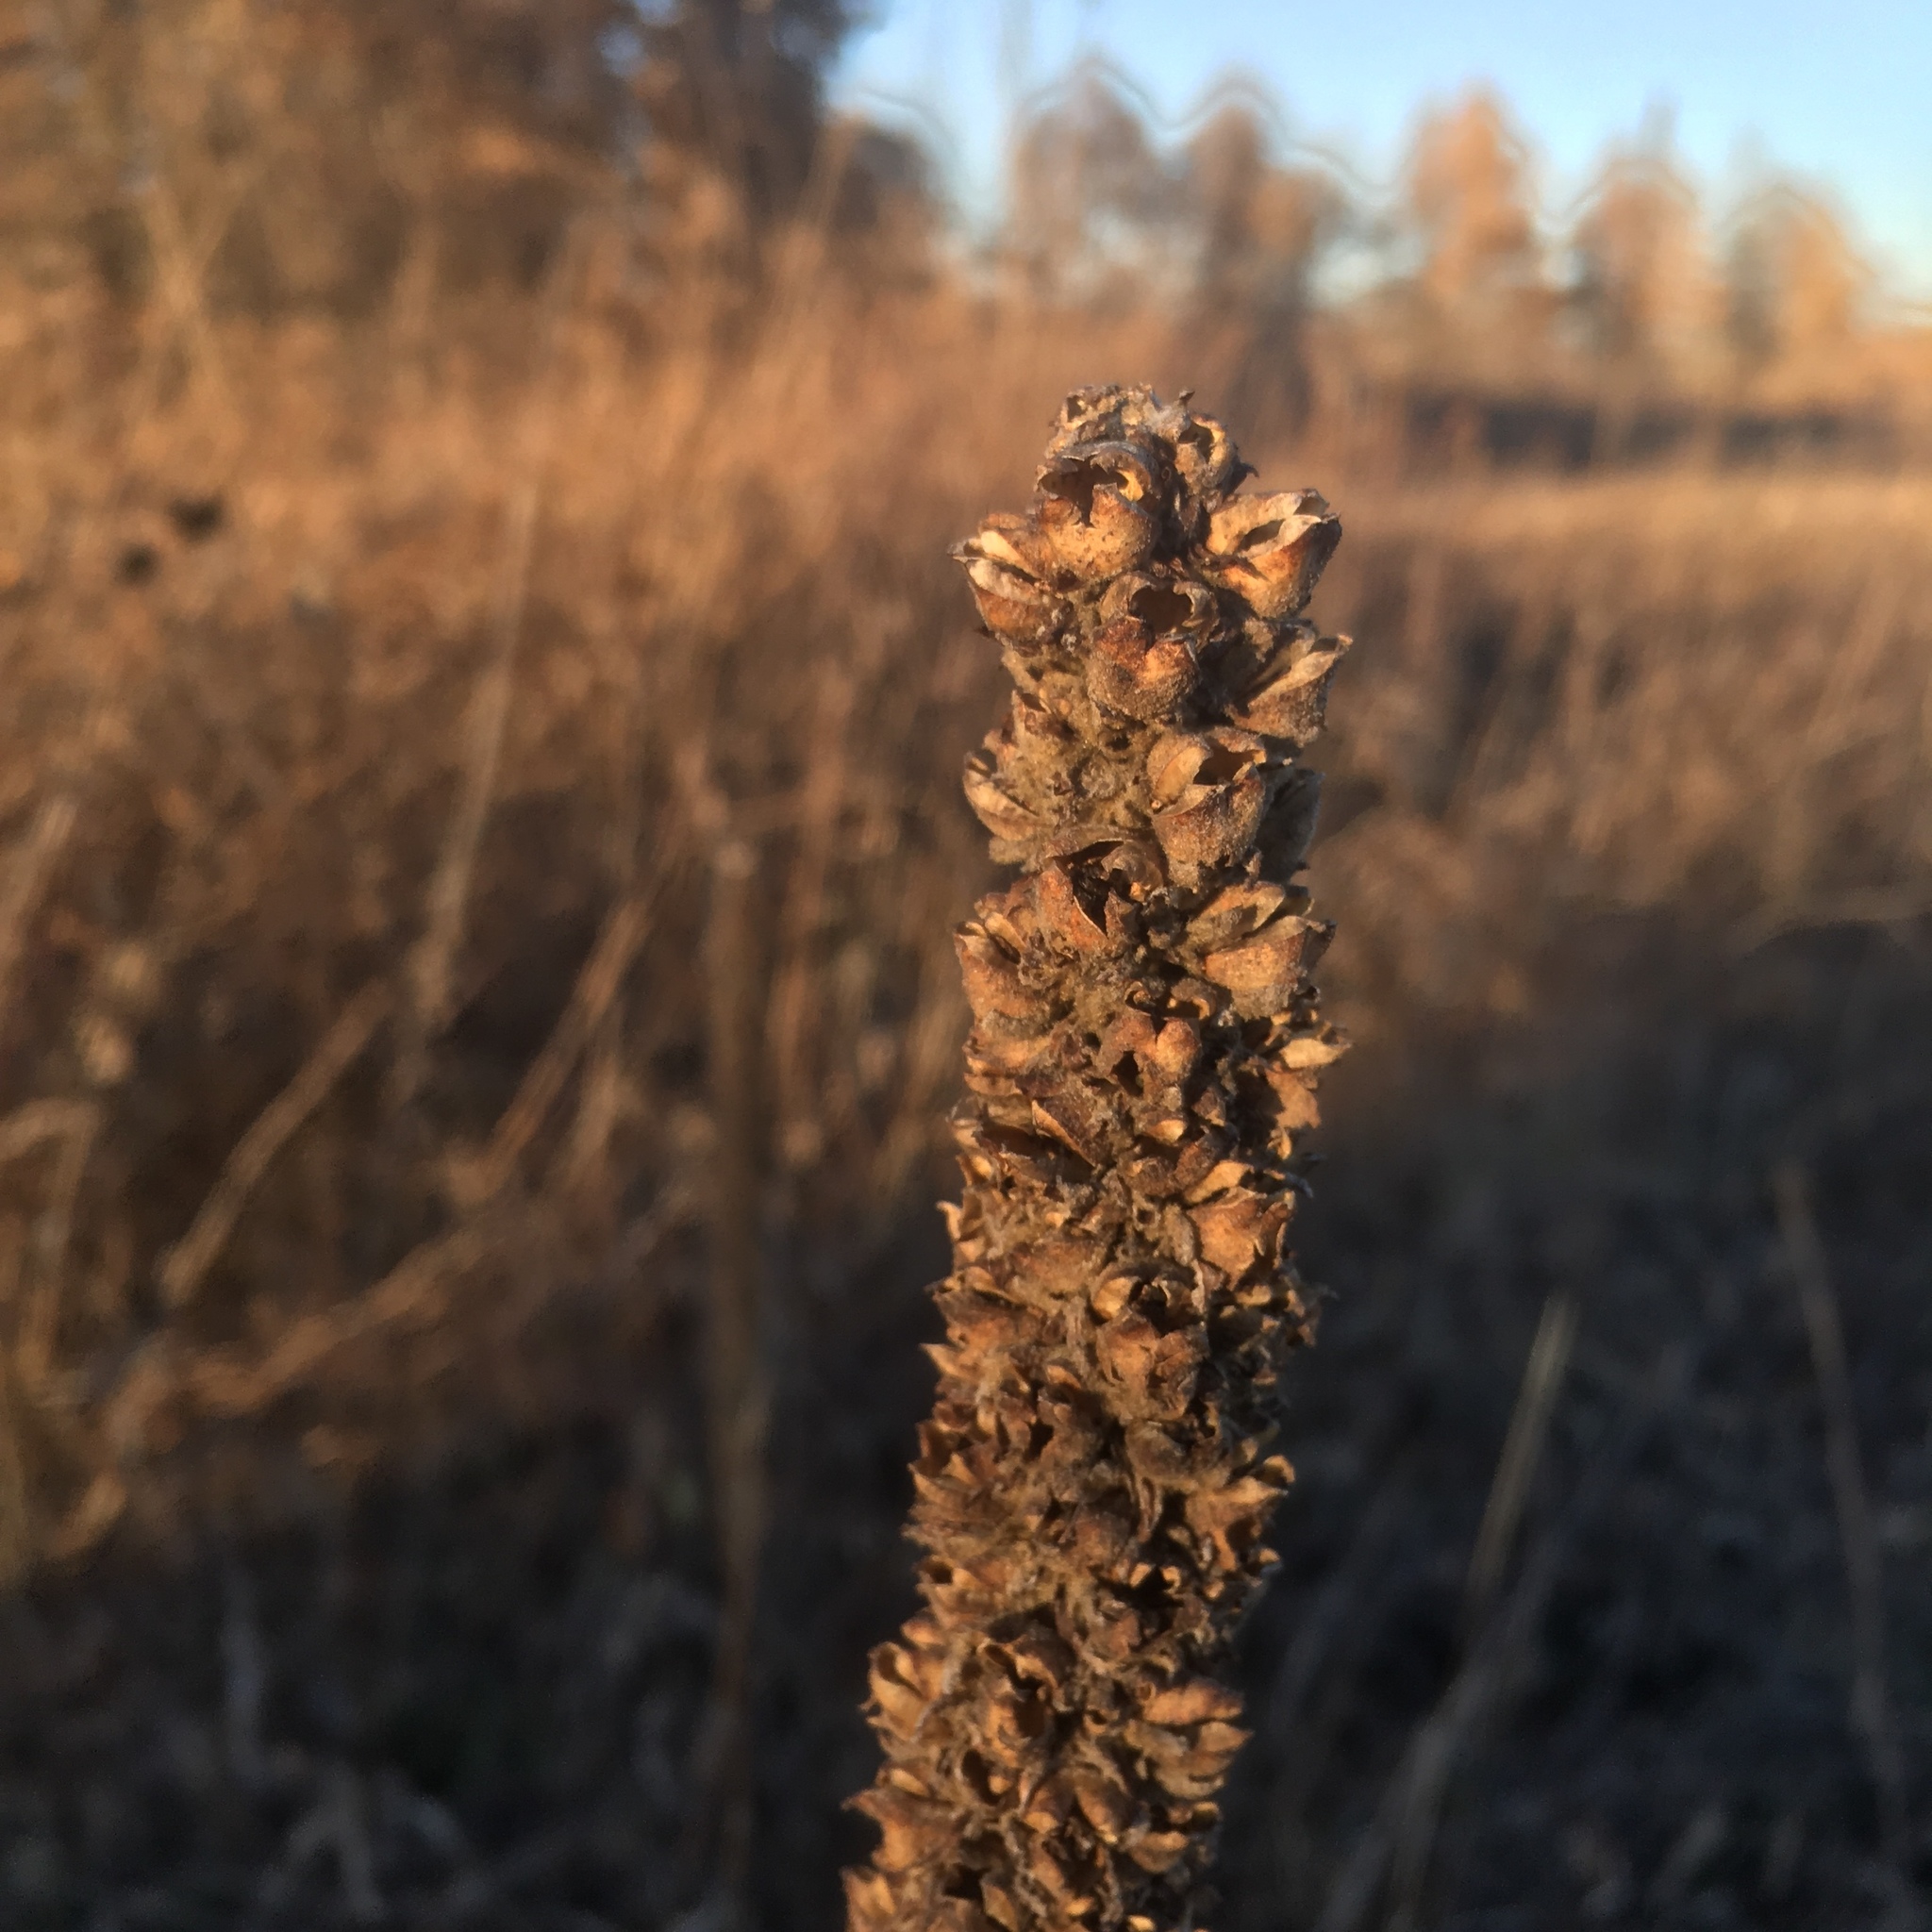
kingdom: Plantae
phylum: Tracheophyta
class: Magnoliopsida
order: Lamiales
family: Scrophulariaceae
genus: Verbascum
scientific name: Verbascum thapsus
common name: Common mullein
